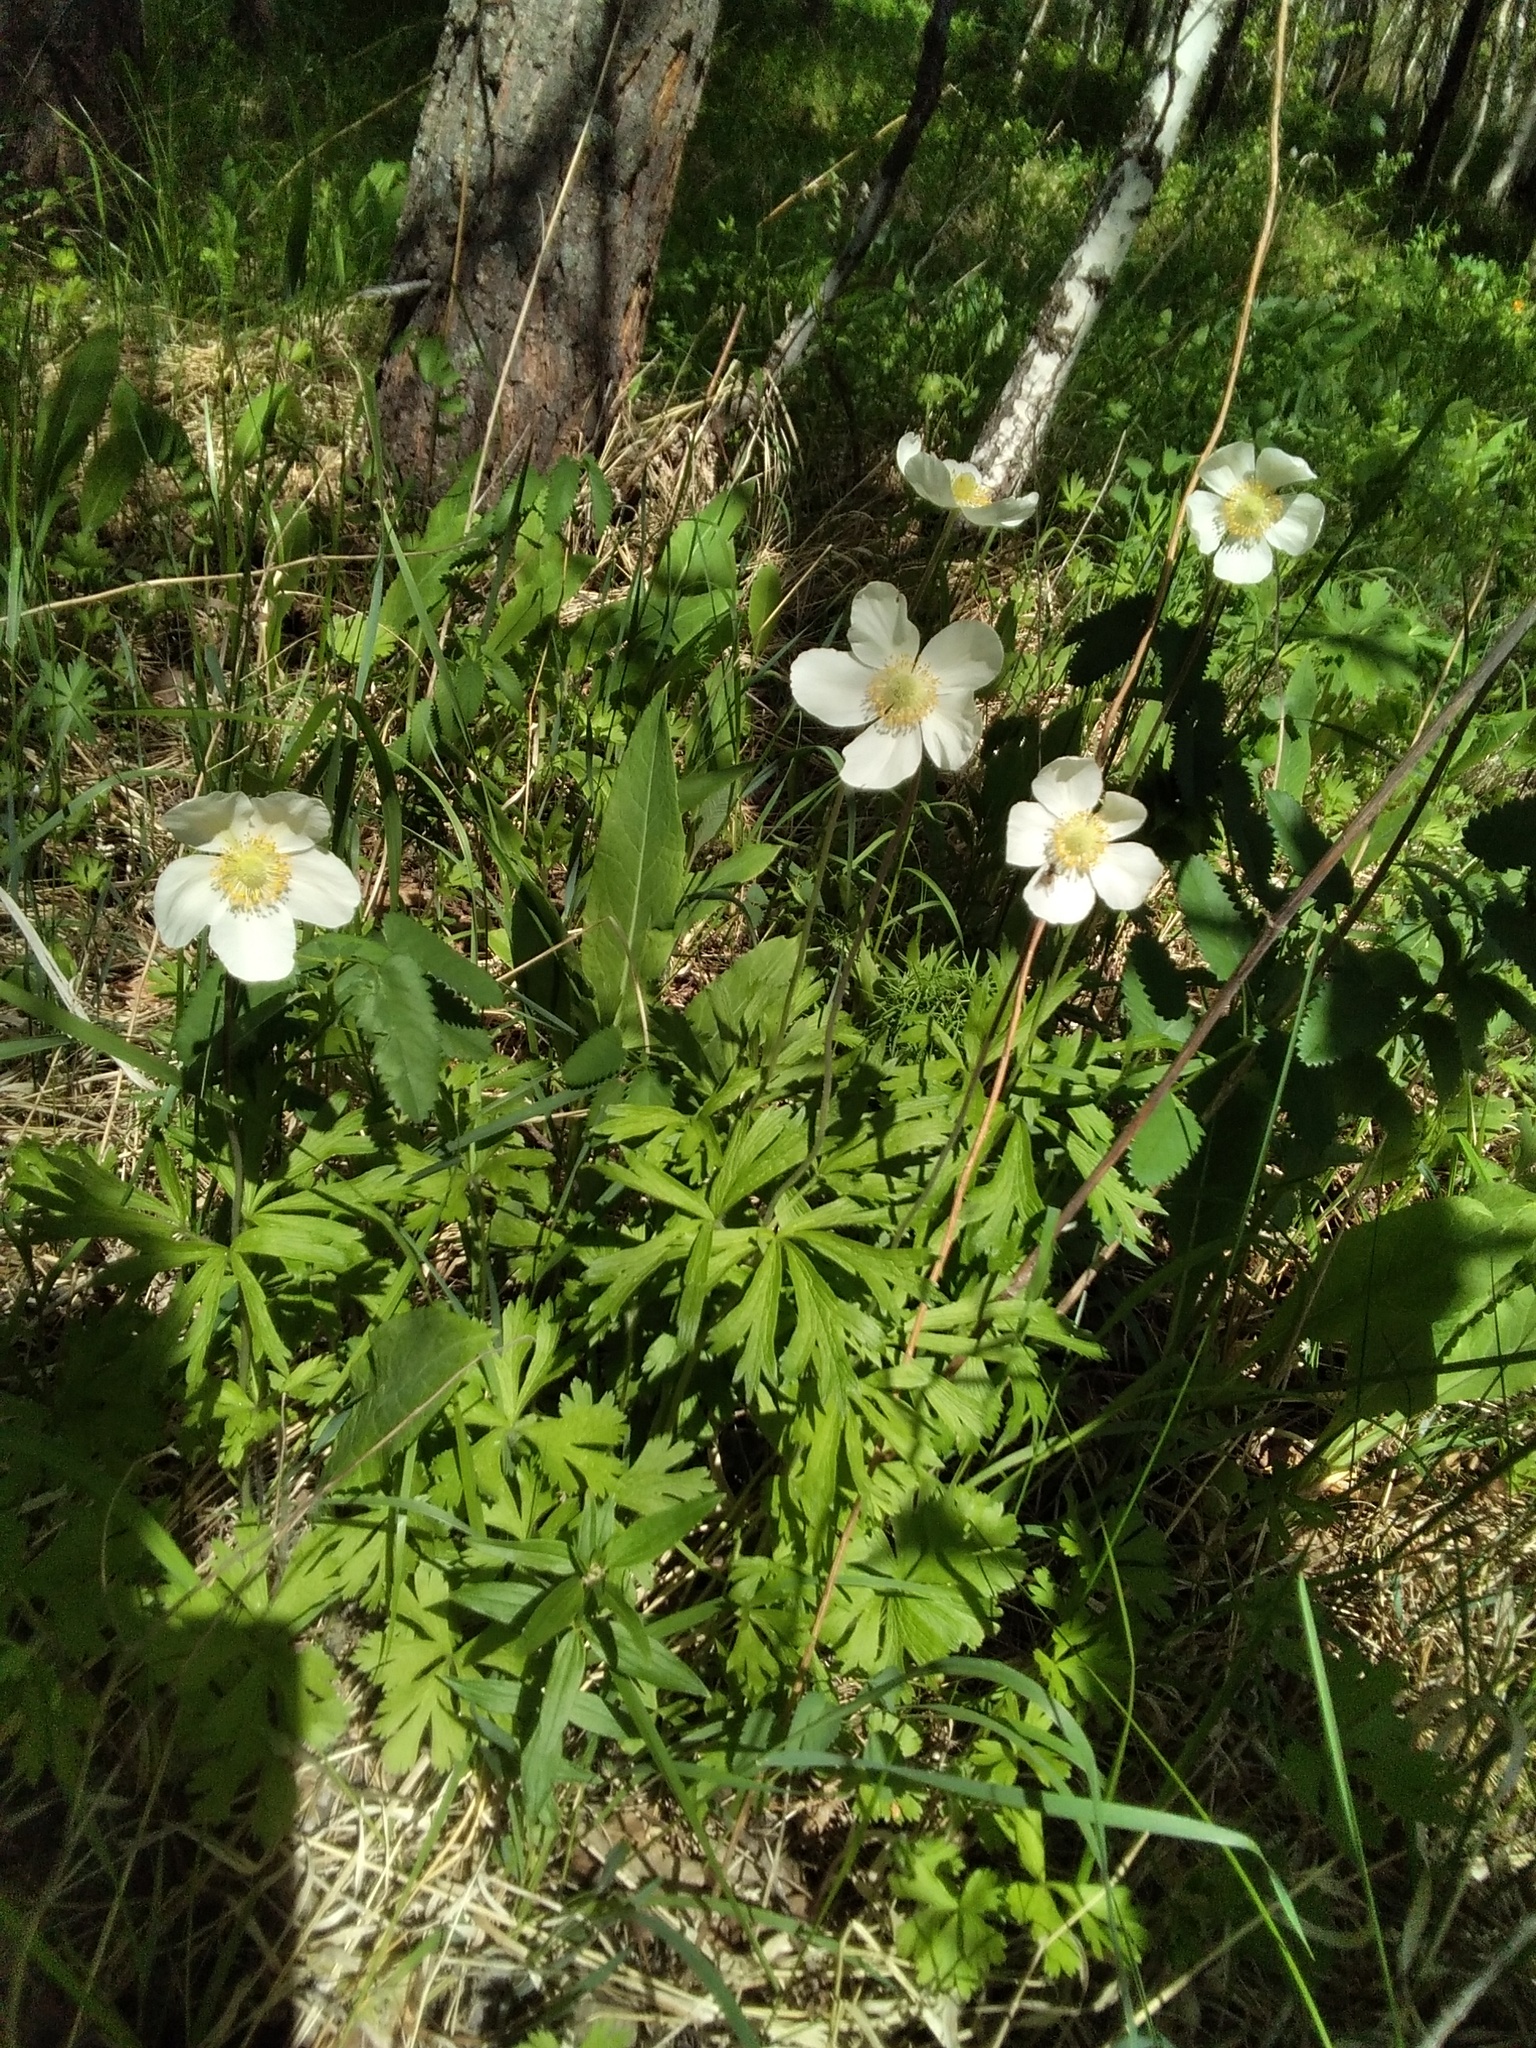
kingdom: Plantae
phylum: Tracheophyta
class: Magnoliopsida
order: Ranunculales
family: Ranunculaceae
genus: Anemone
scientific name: Anemone sylvestris
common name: Snowdrop anemone
